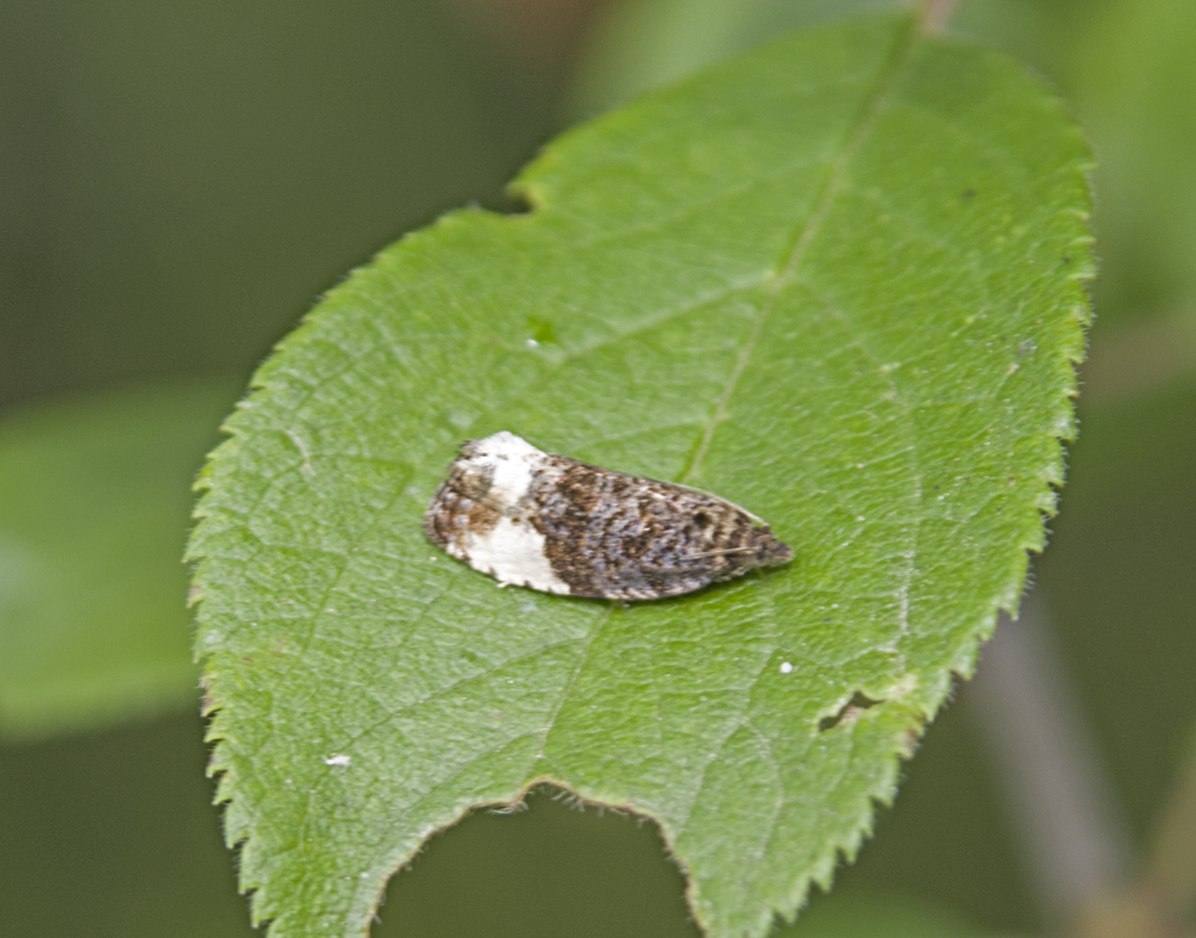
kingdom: Animalia
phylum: Arthropoda
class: Insecta
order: Lepidoptera
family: Tortricidae
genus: Hedya
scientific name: Hedya pruniana
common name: Plum tortrix
